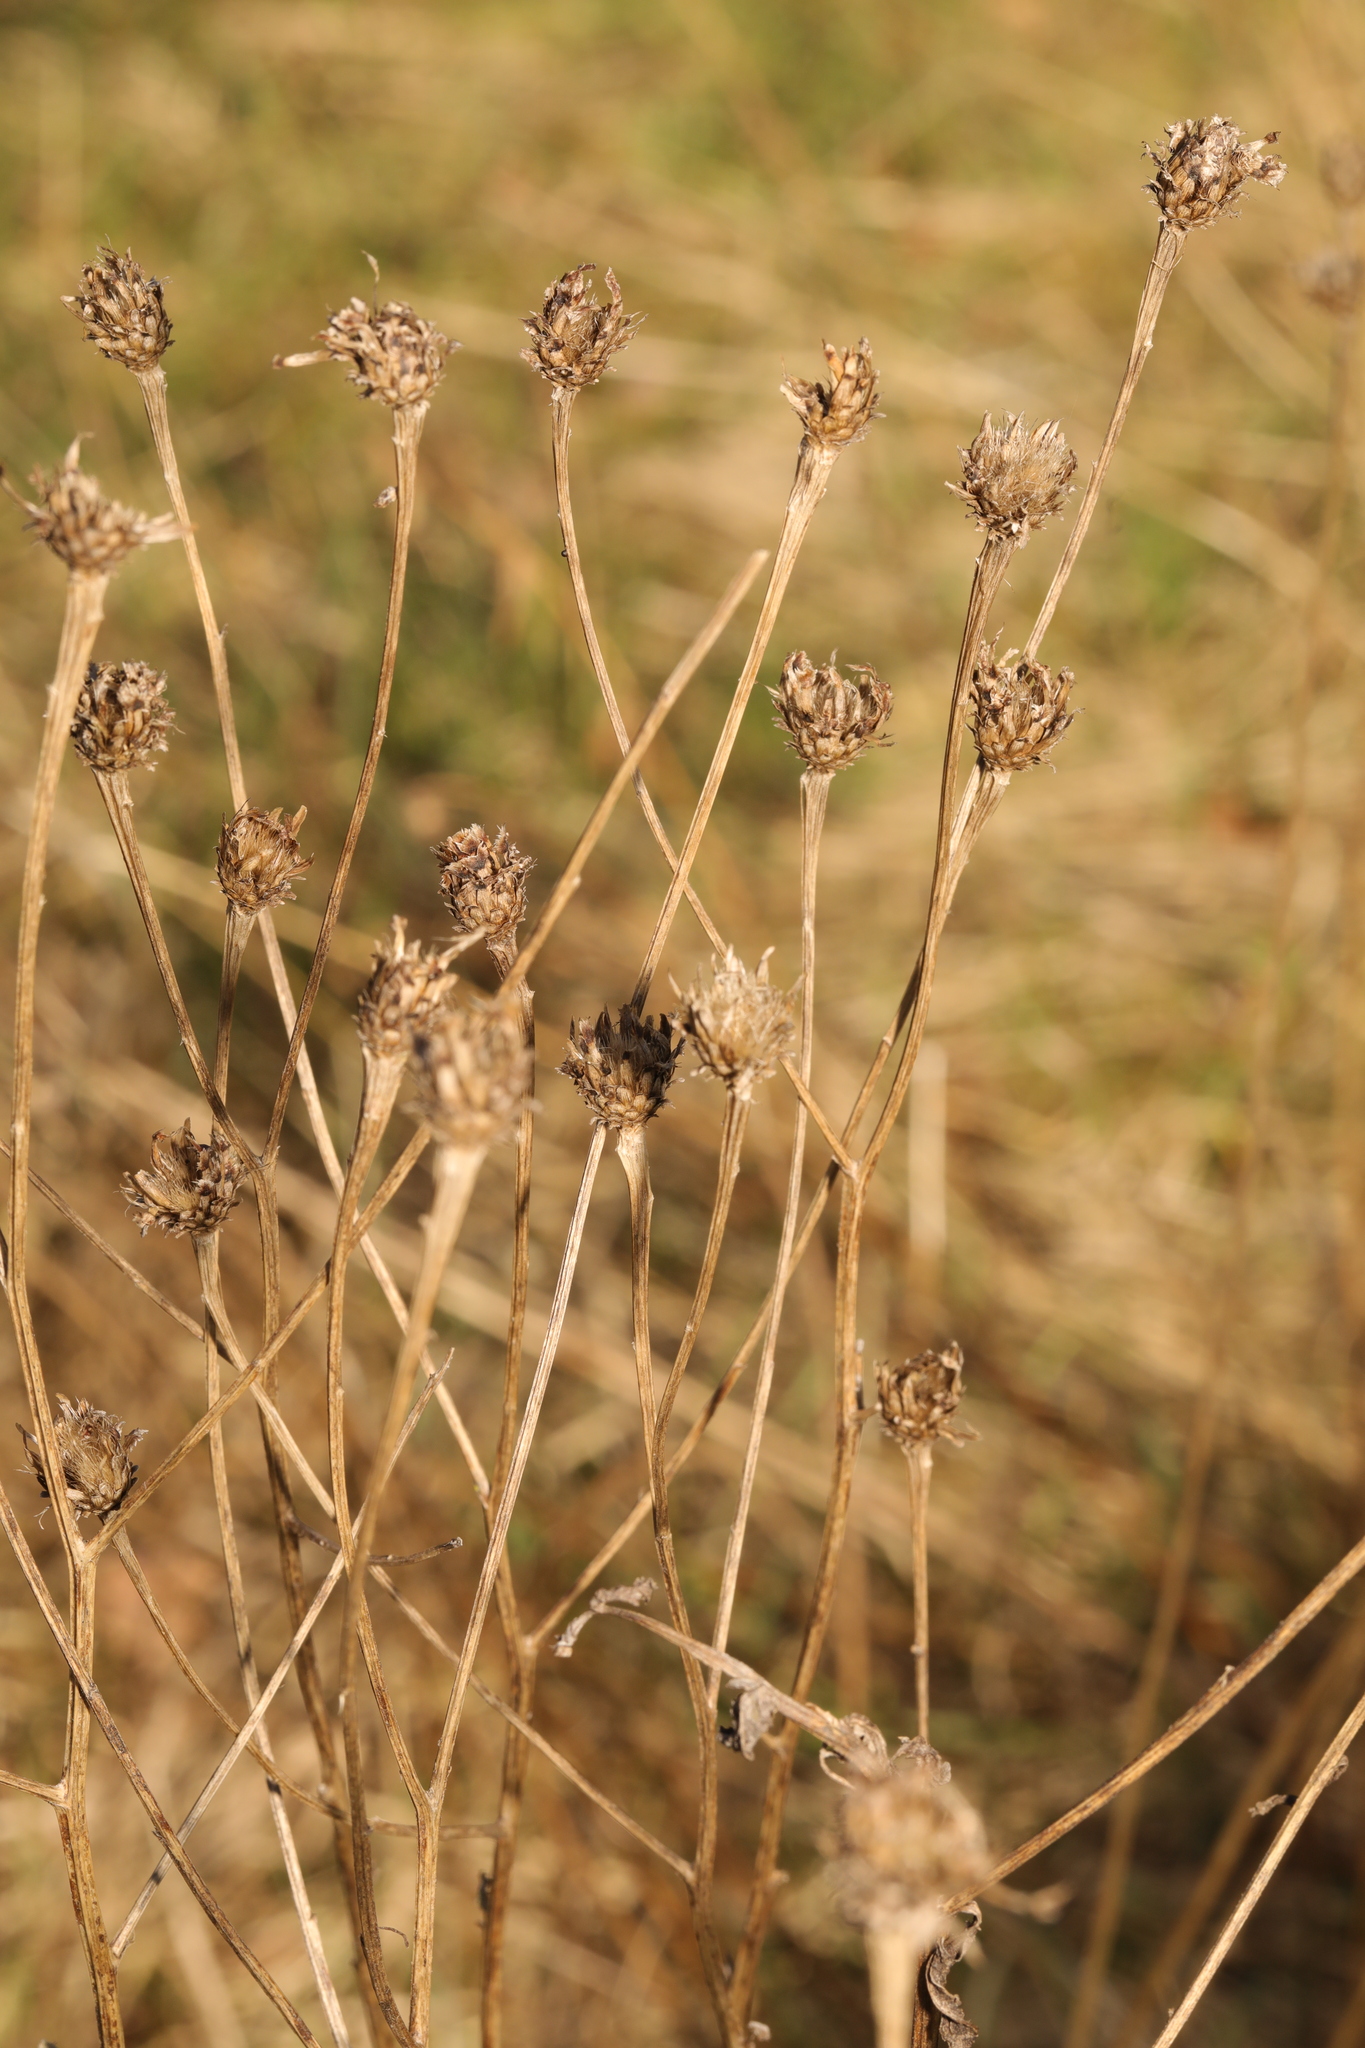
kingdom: Plantae
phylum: Tracheophyta
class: Magnoliopsida
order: Asterales
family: Asteraceae
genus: Centaurea
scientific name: Centaurea nigra
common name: Lesser knapweed
